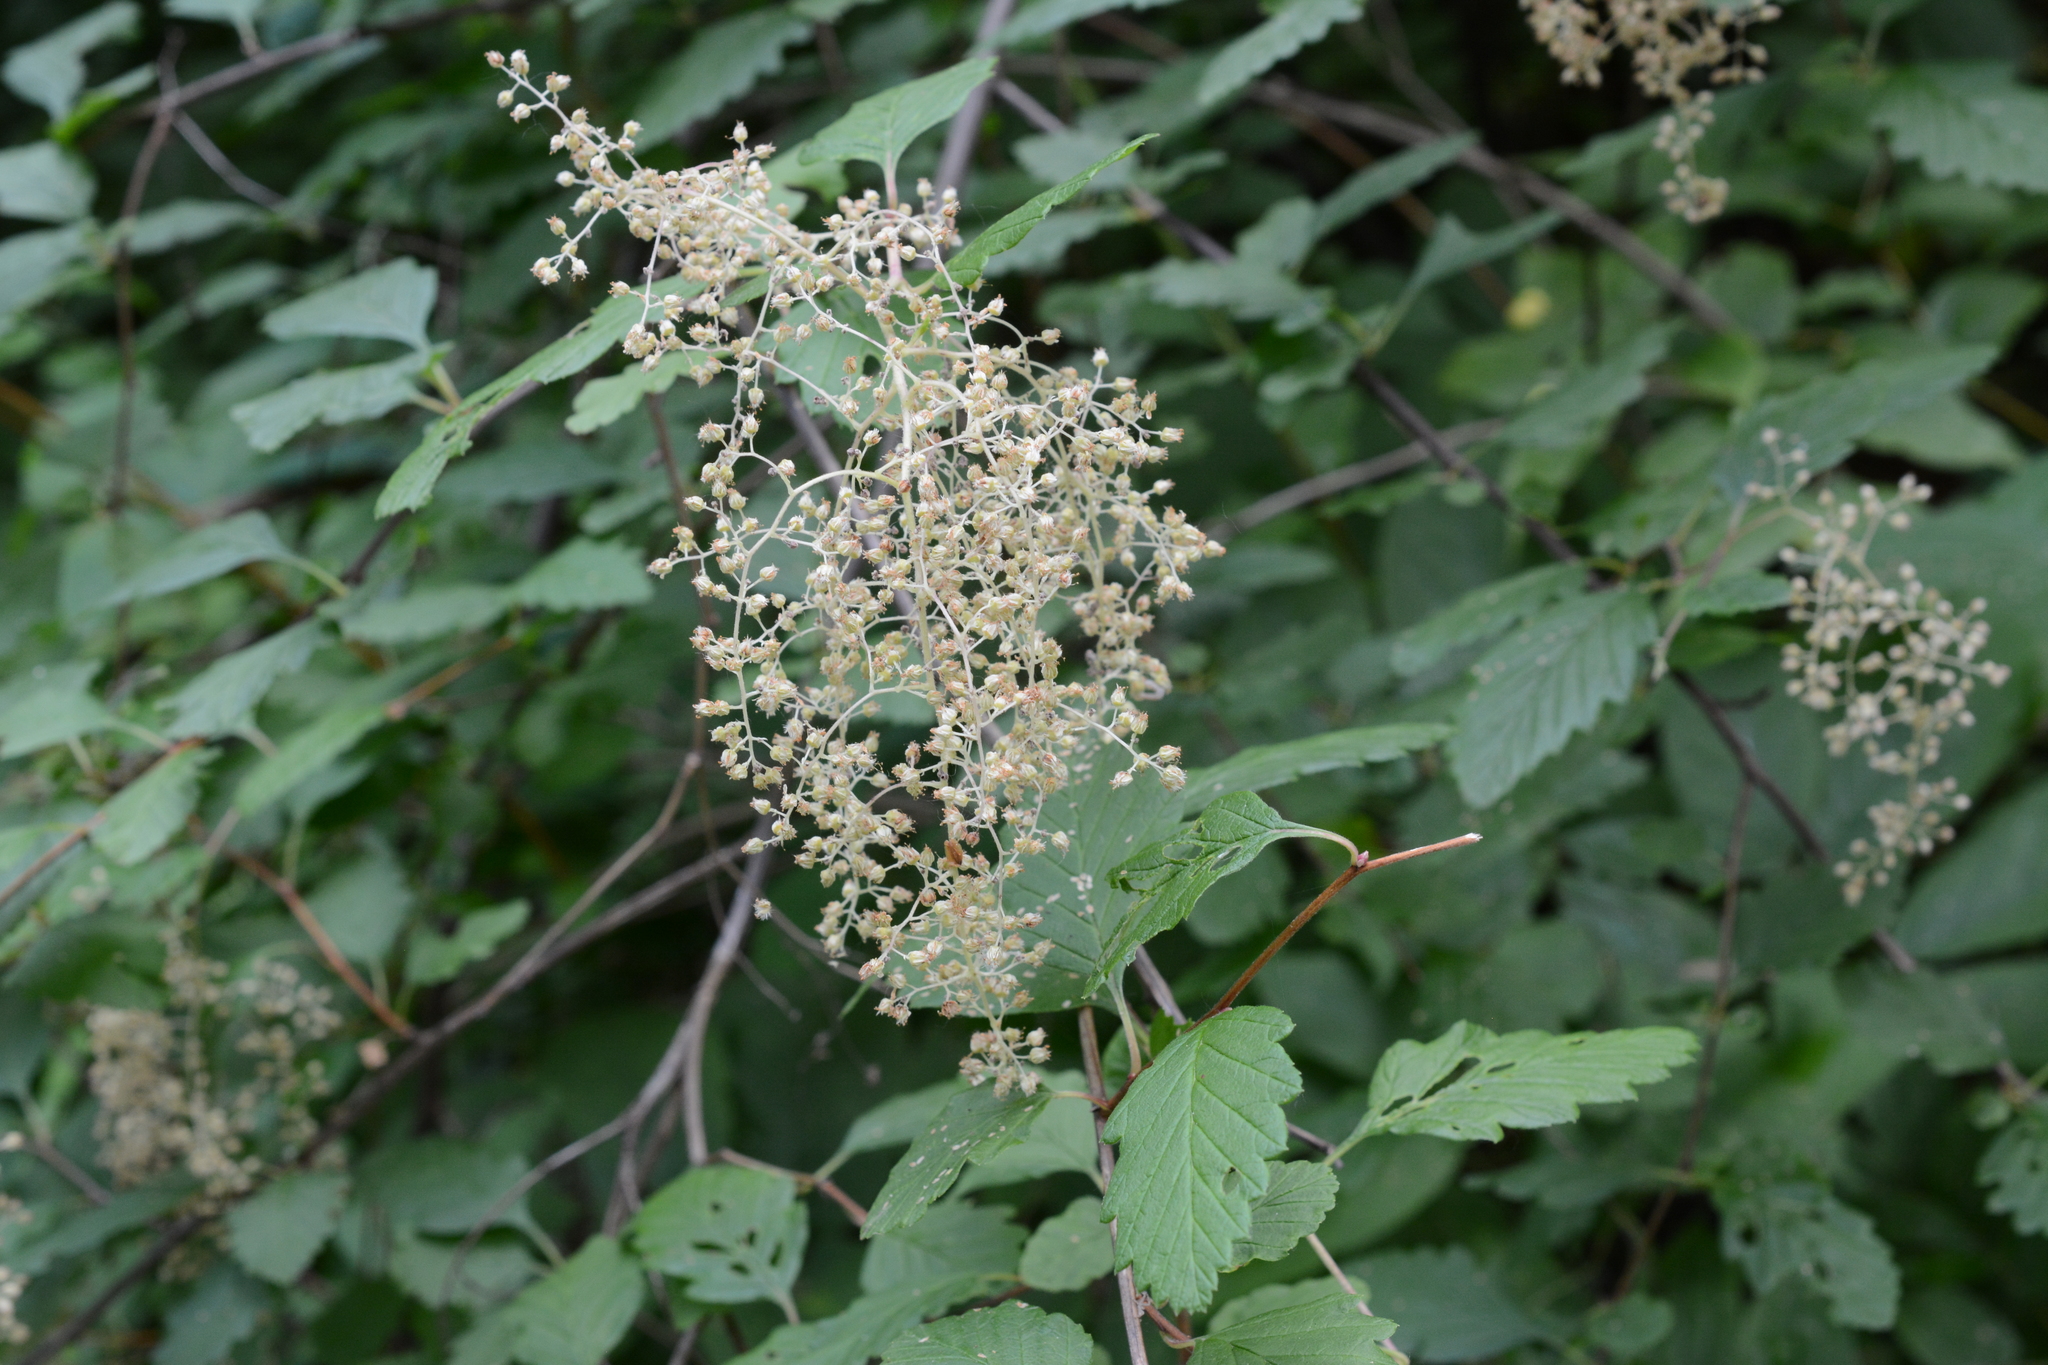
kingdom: Plantae
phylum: Tracheophyta
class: Magnoliopsida
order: Rosales
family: Rosaceae
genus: Holodiscus
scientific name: Holodiscus discolor
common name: Oceanspray
